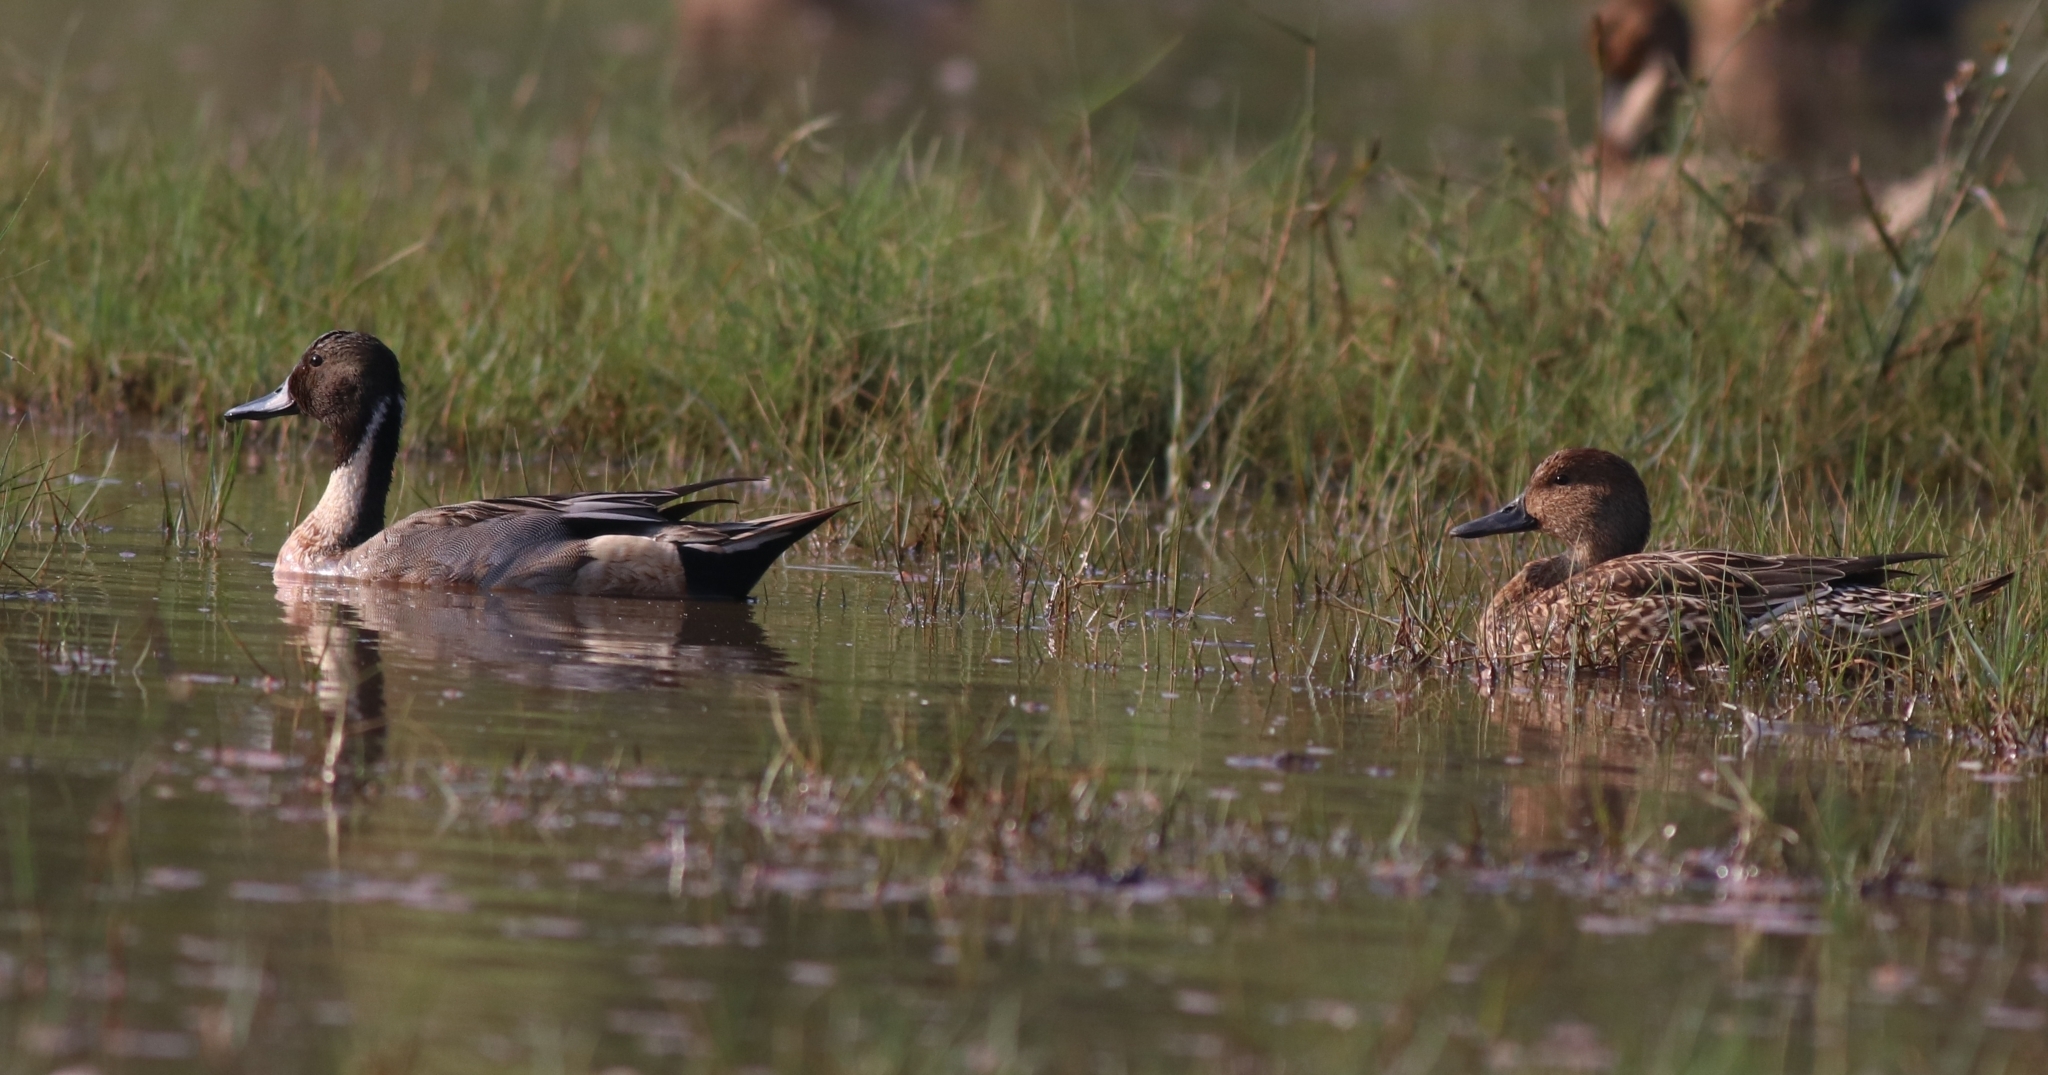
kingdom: Animalia
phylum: Chordata
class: Aves
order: Anseriformes
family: Anatidae
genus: Anas
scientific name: Anas acuta
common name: Northern pintail
